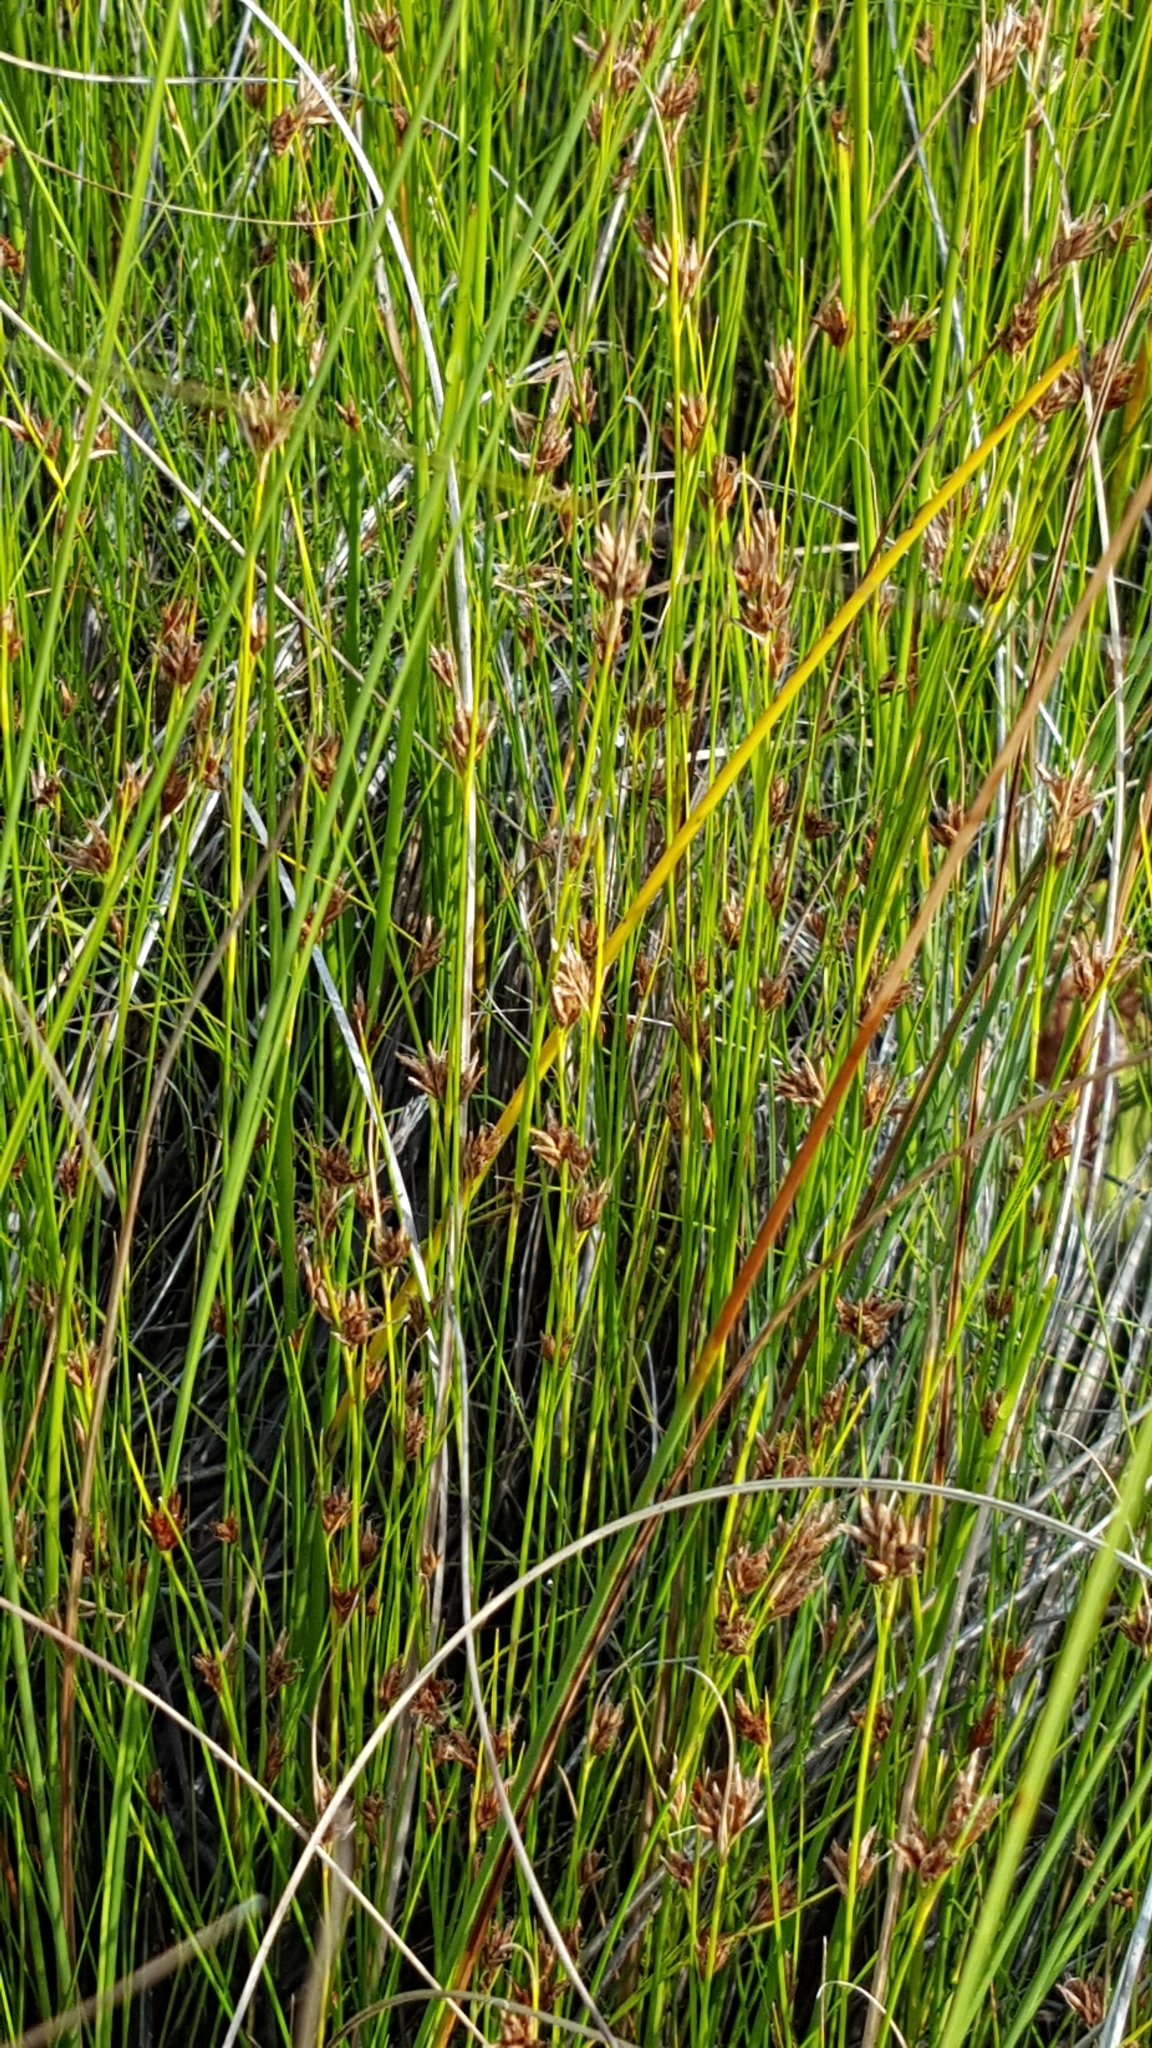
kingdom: Plantae
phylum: Tracheophyta
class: Liliopsida
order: Poales
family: Cyperaceae
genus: Cladium
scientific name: Cladium mariscoides
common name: Smooth sawgrass
